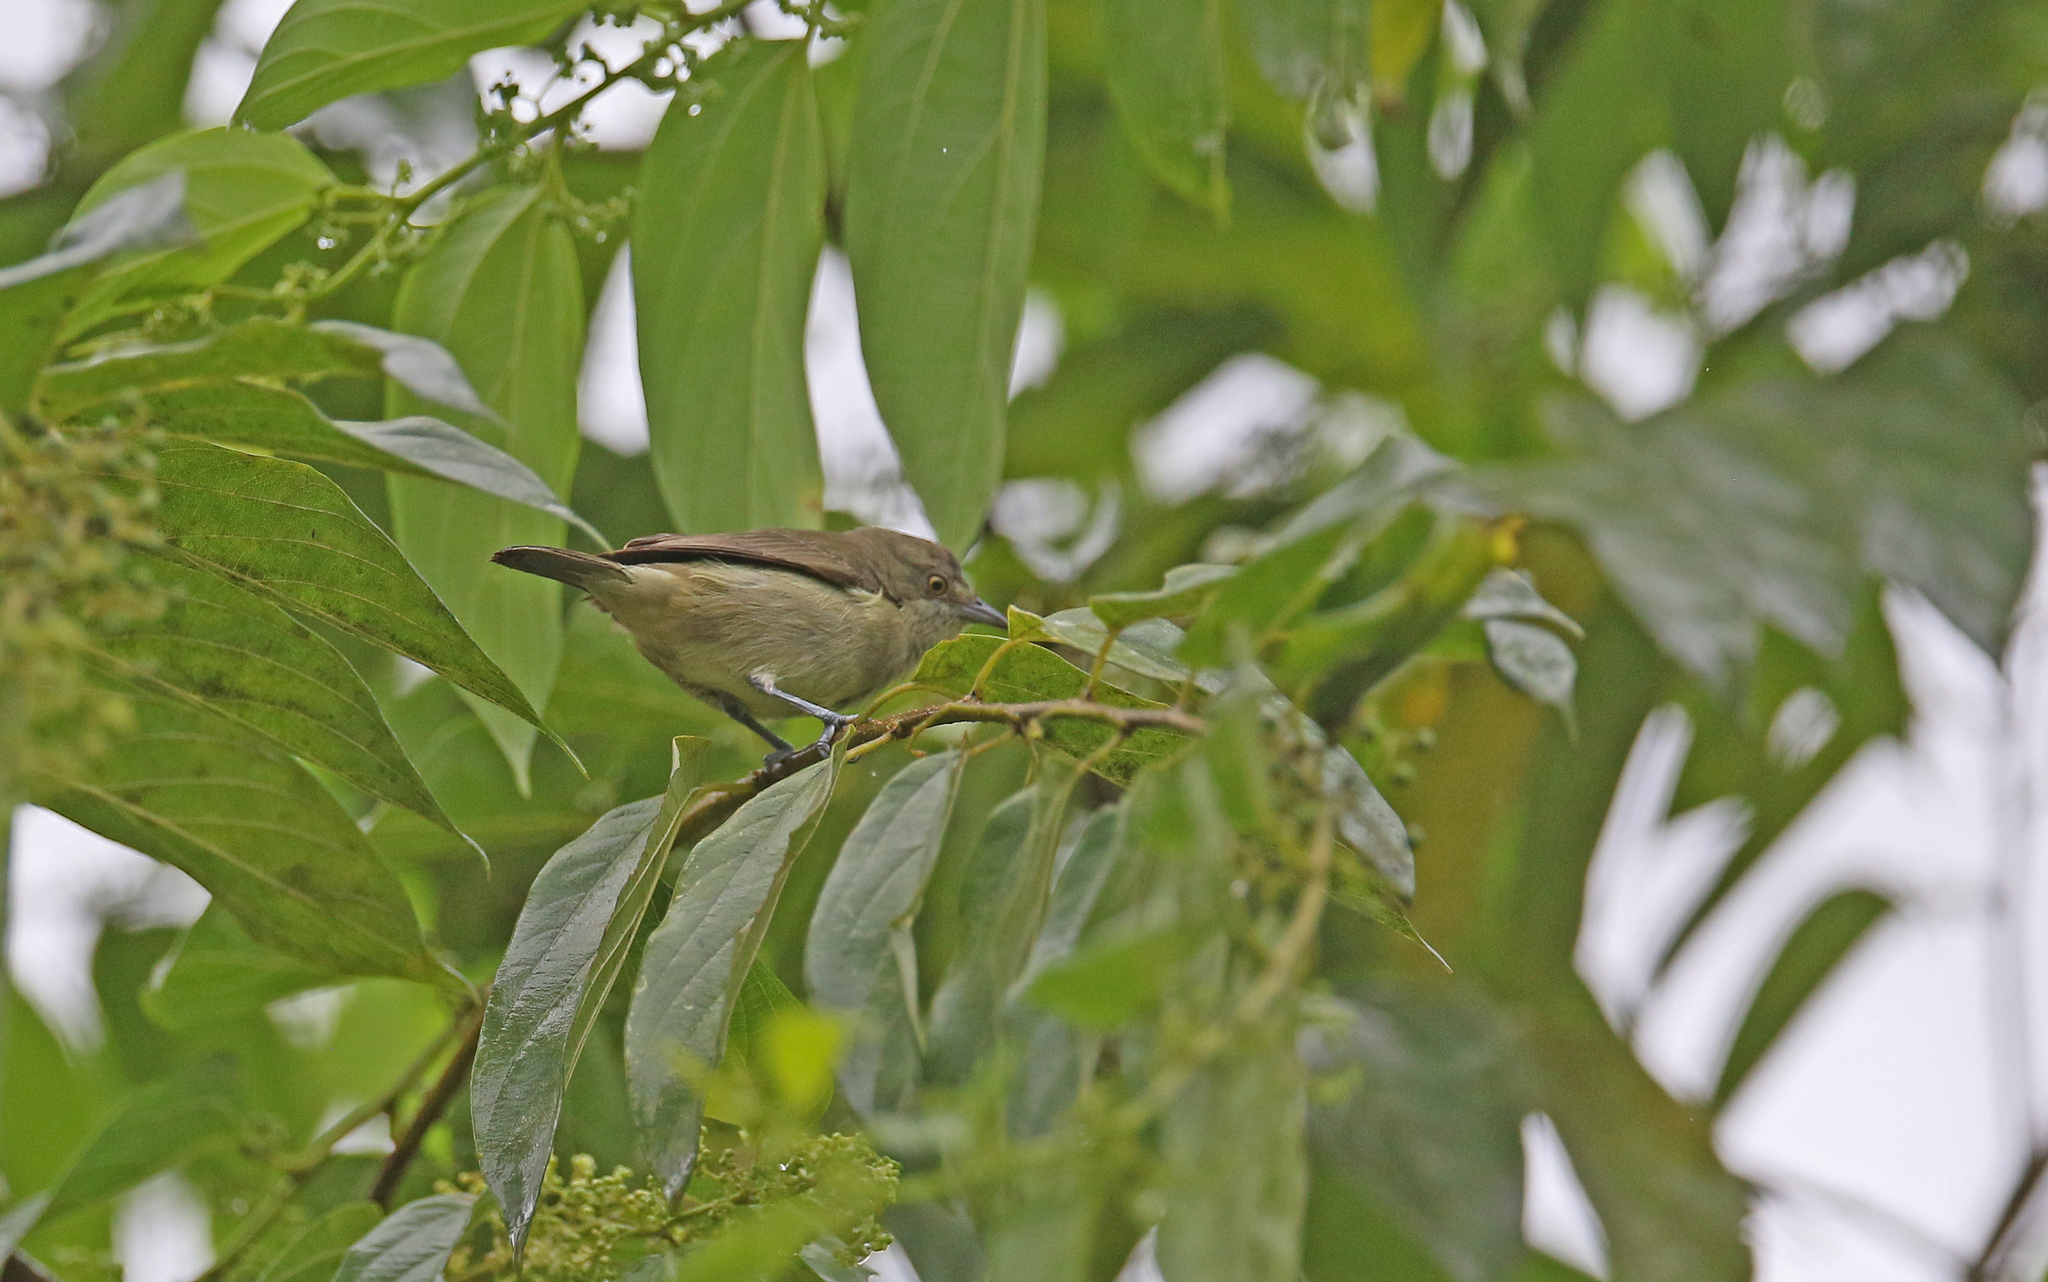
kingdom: Animalia
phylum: Chordata
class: Aves
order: Passeriformes
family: Thraupidae
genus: Dacnis
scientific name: Dacnis lineata
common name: Black-faced dacnis
